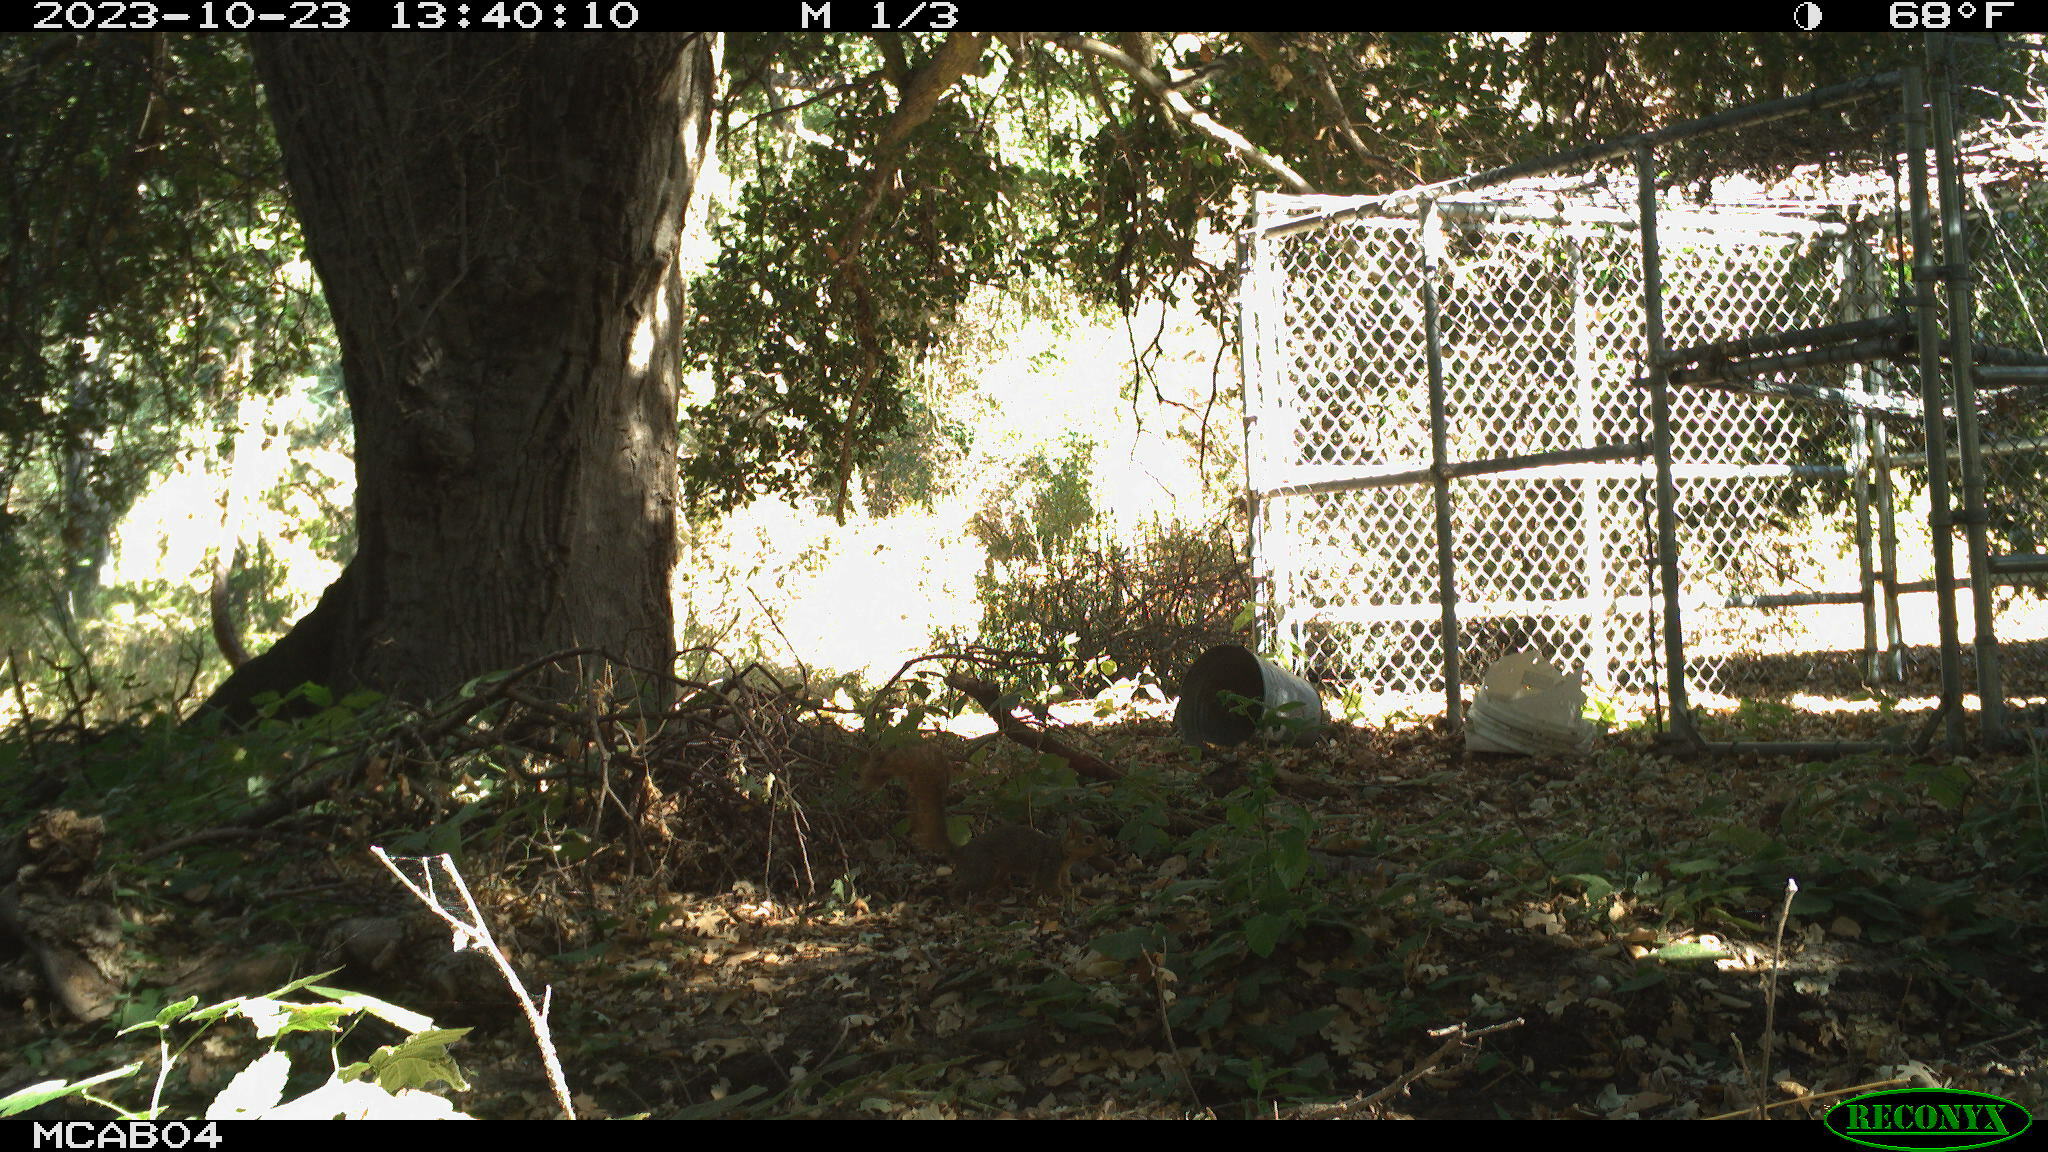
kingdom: Animalia
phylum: Chordata
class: Mammalia
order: Rodentia
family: Sciuridae
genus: Sciurus
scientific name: Sciurus niger
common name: Fox squirrel
